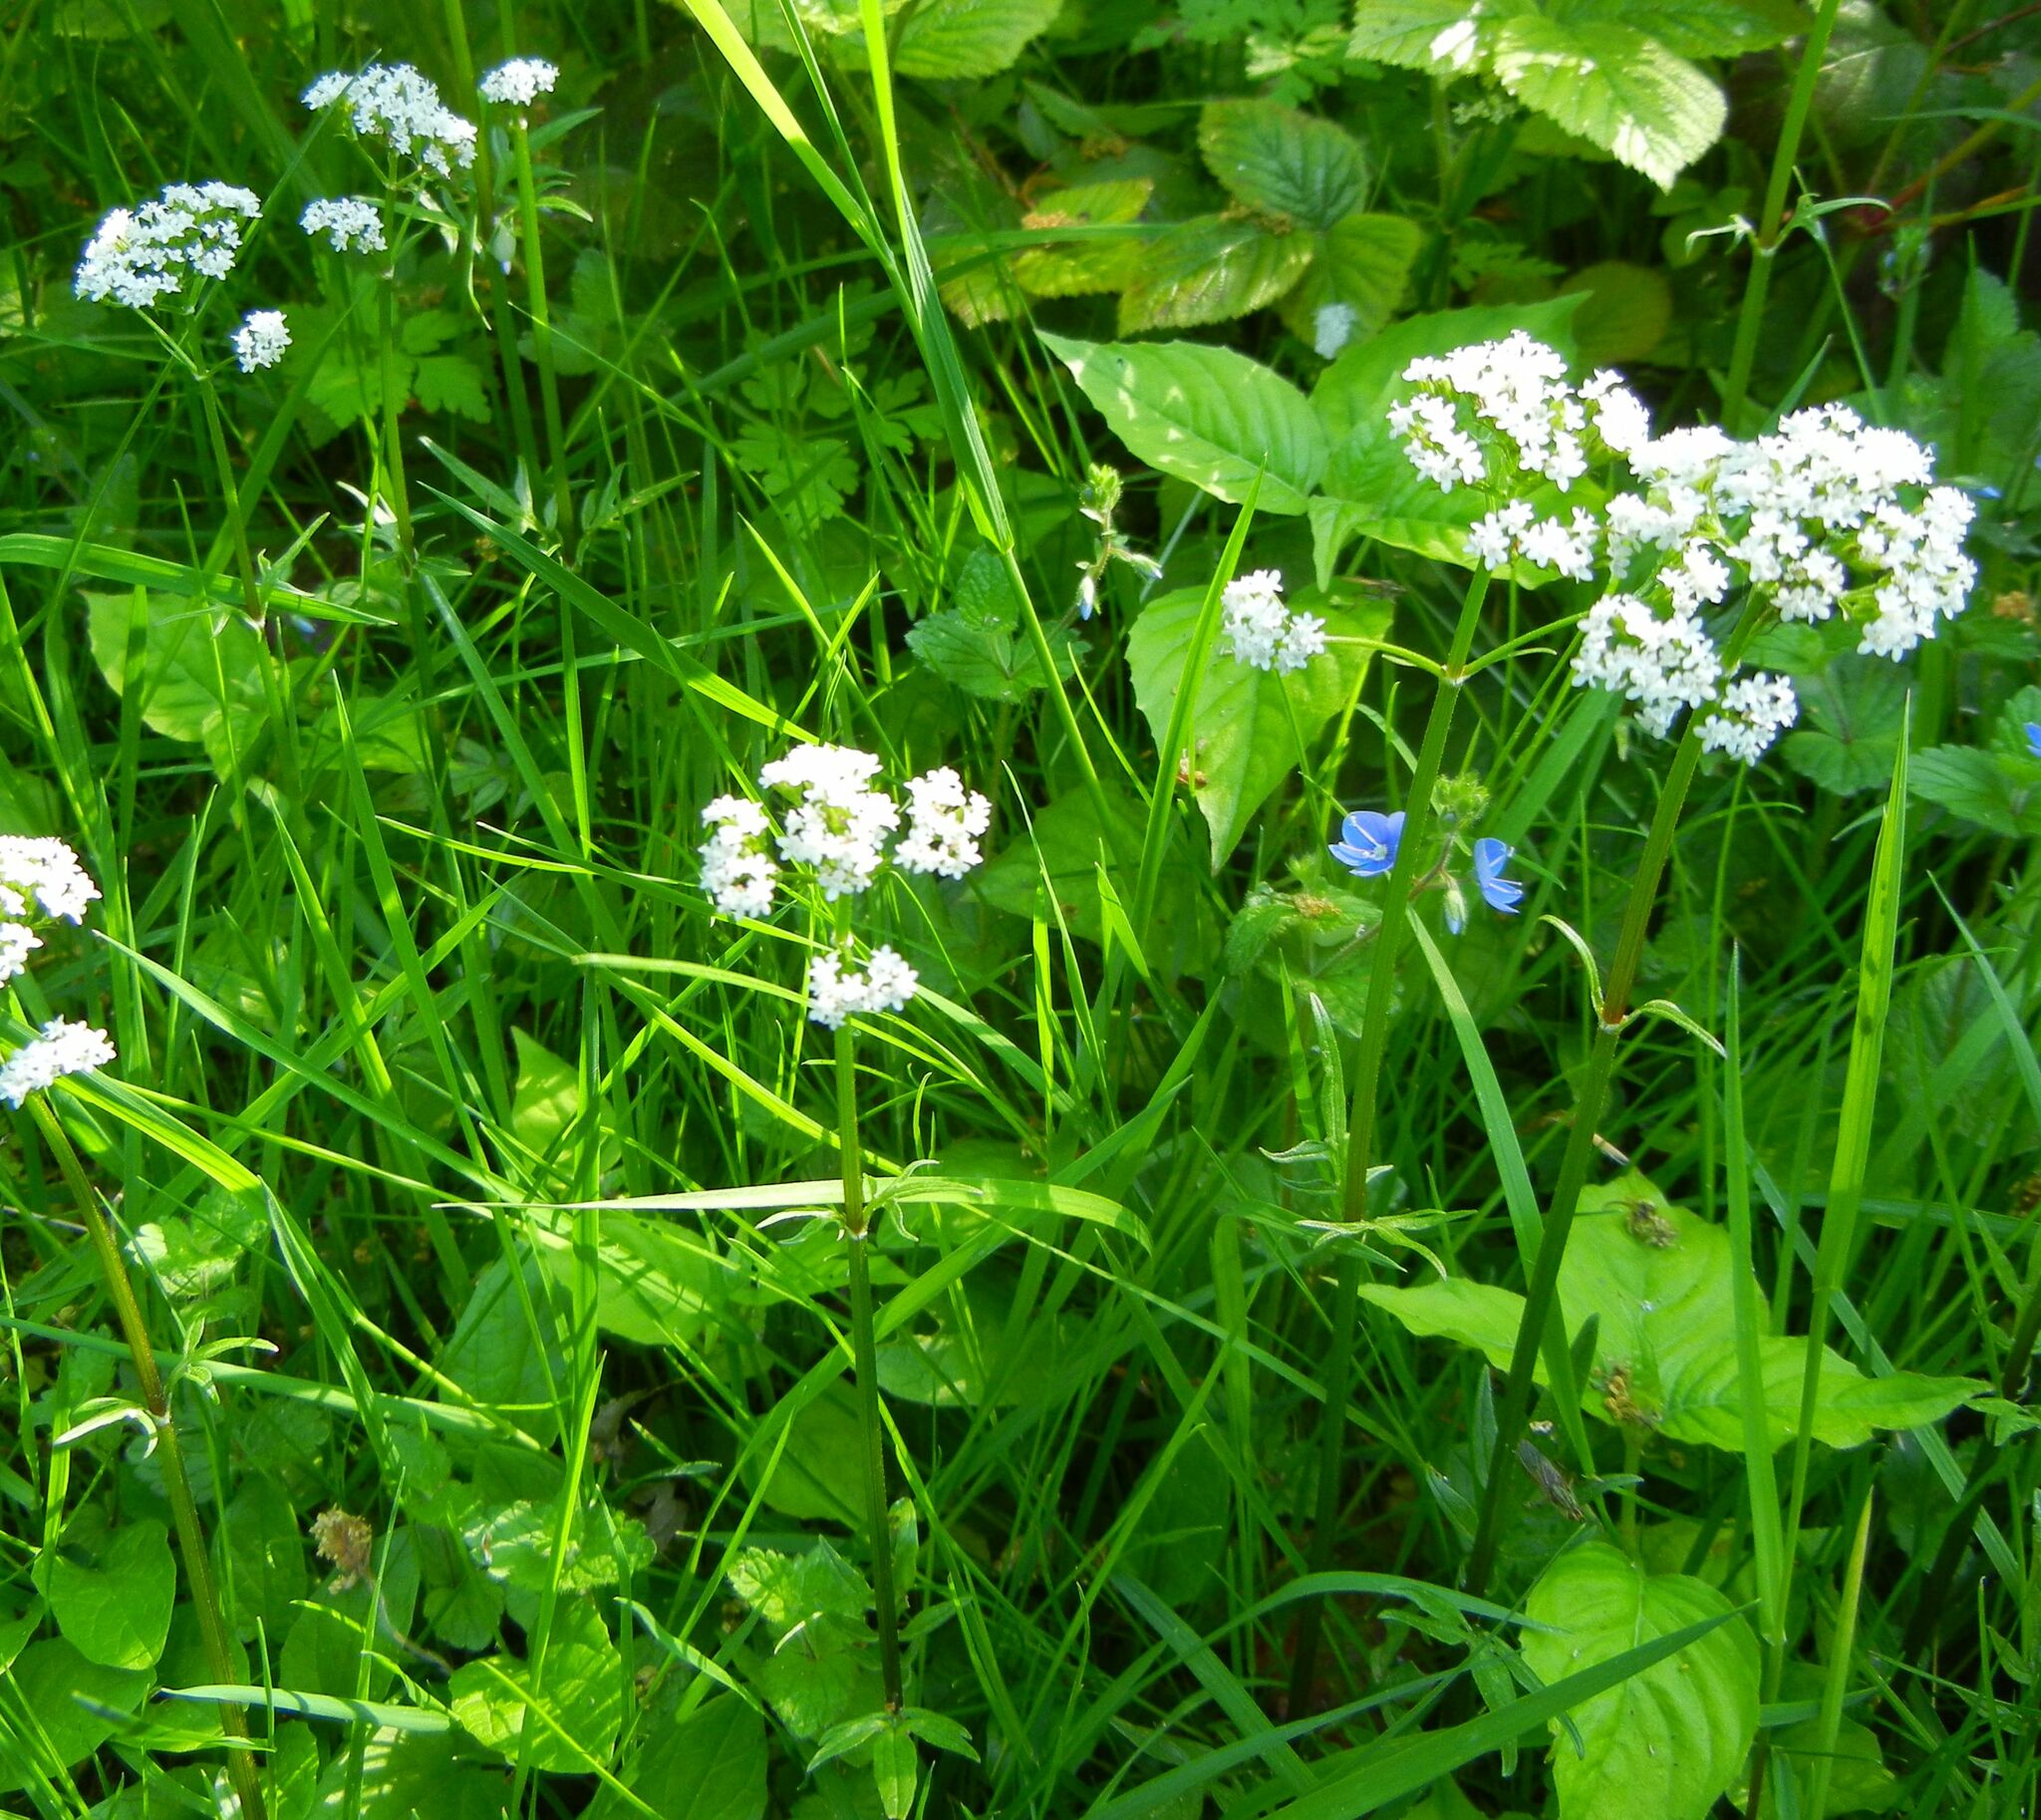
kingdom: Plantae
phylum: Tracheophyta
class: Magnoliopsida
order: Dipsacales
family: Caprifoliaceae
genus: Valeriana
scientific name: Valeriana dioica
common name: Marsh valerian
